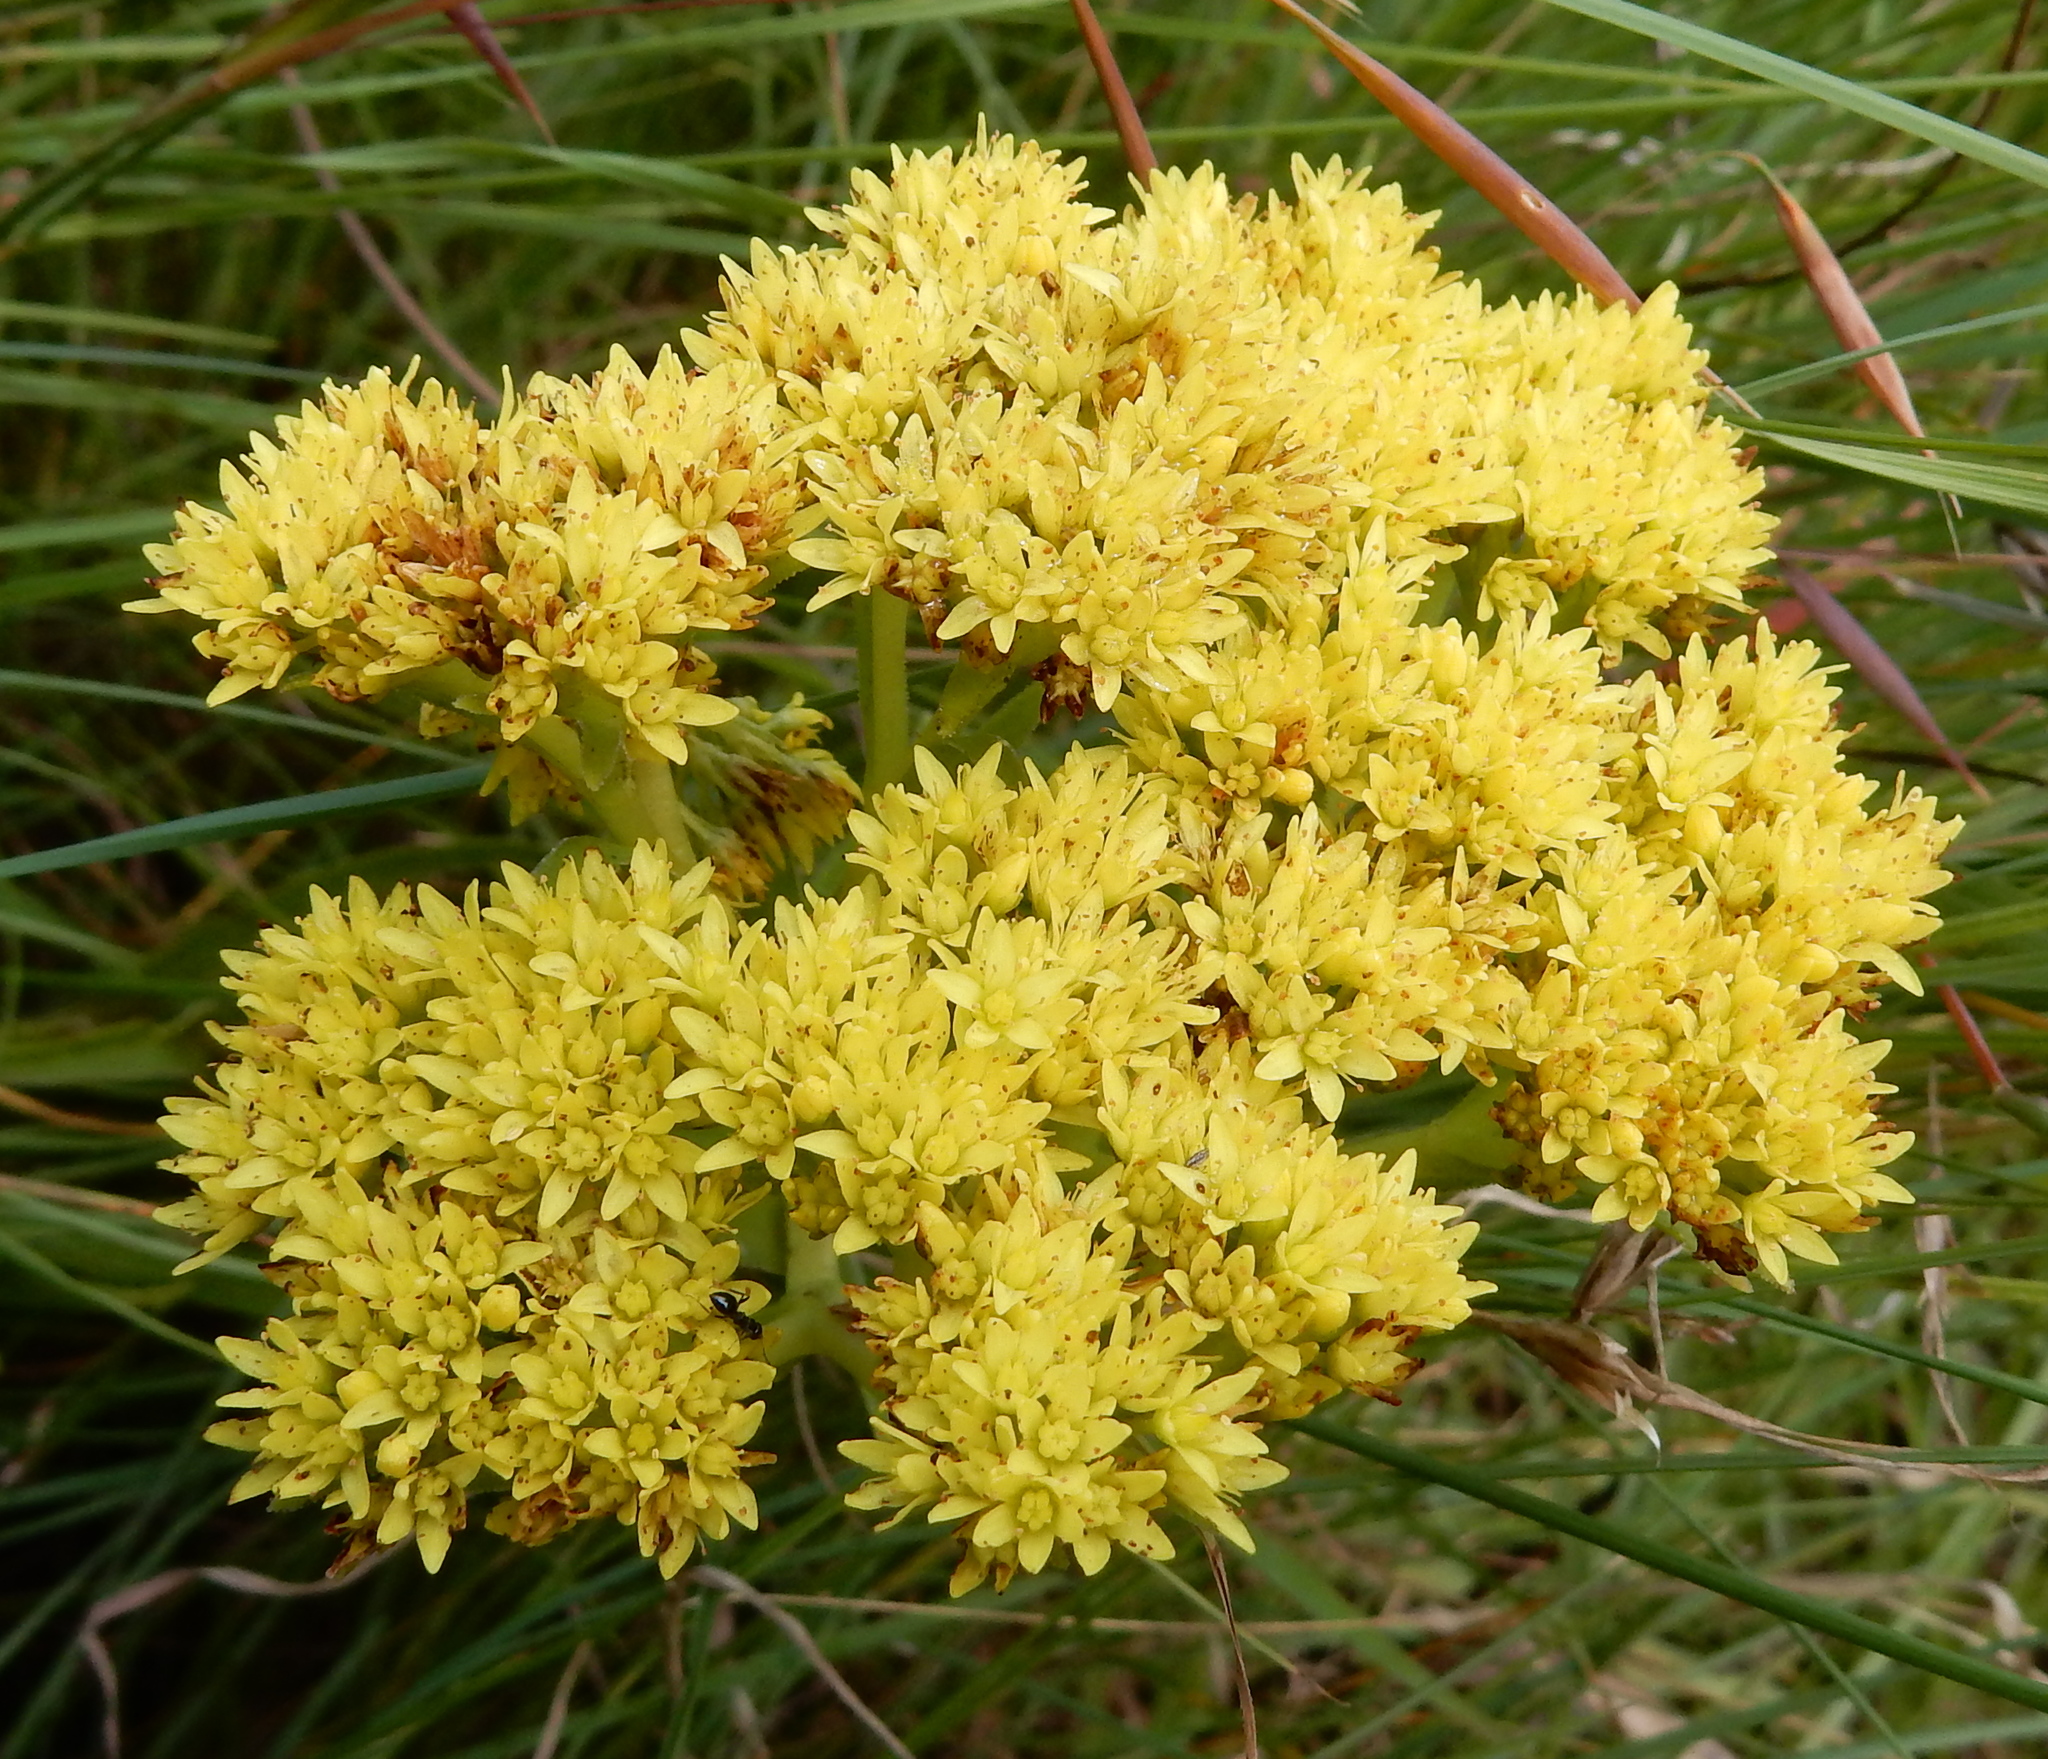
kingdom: Plantae
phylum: Tracheophyta
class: Magnoliopsida
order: Saxifragales
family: Crassulaceae
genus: Crassula
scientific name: Crassula alba
